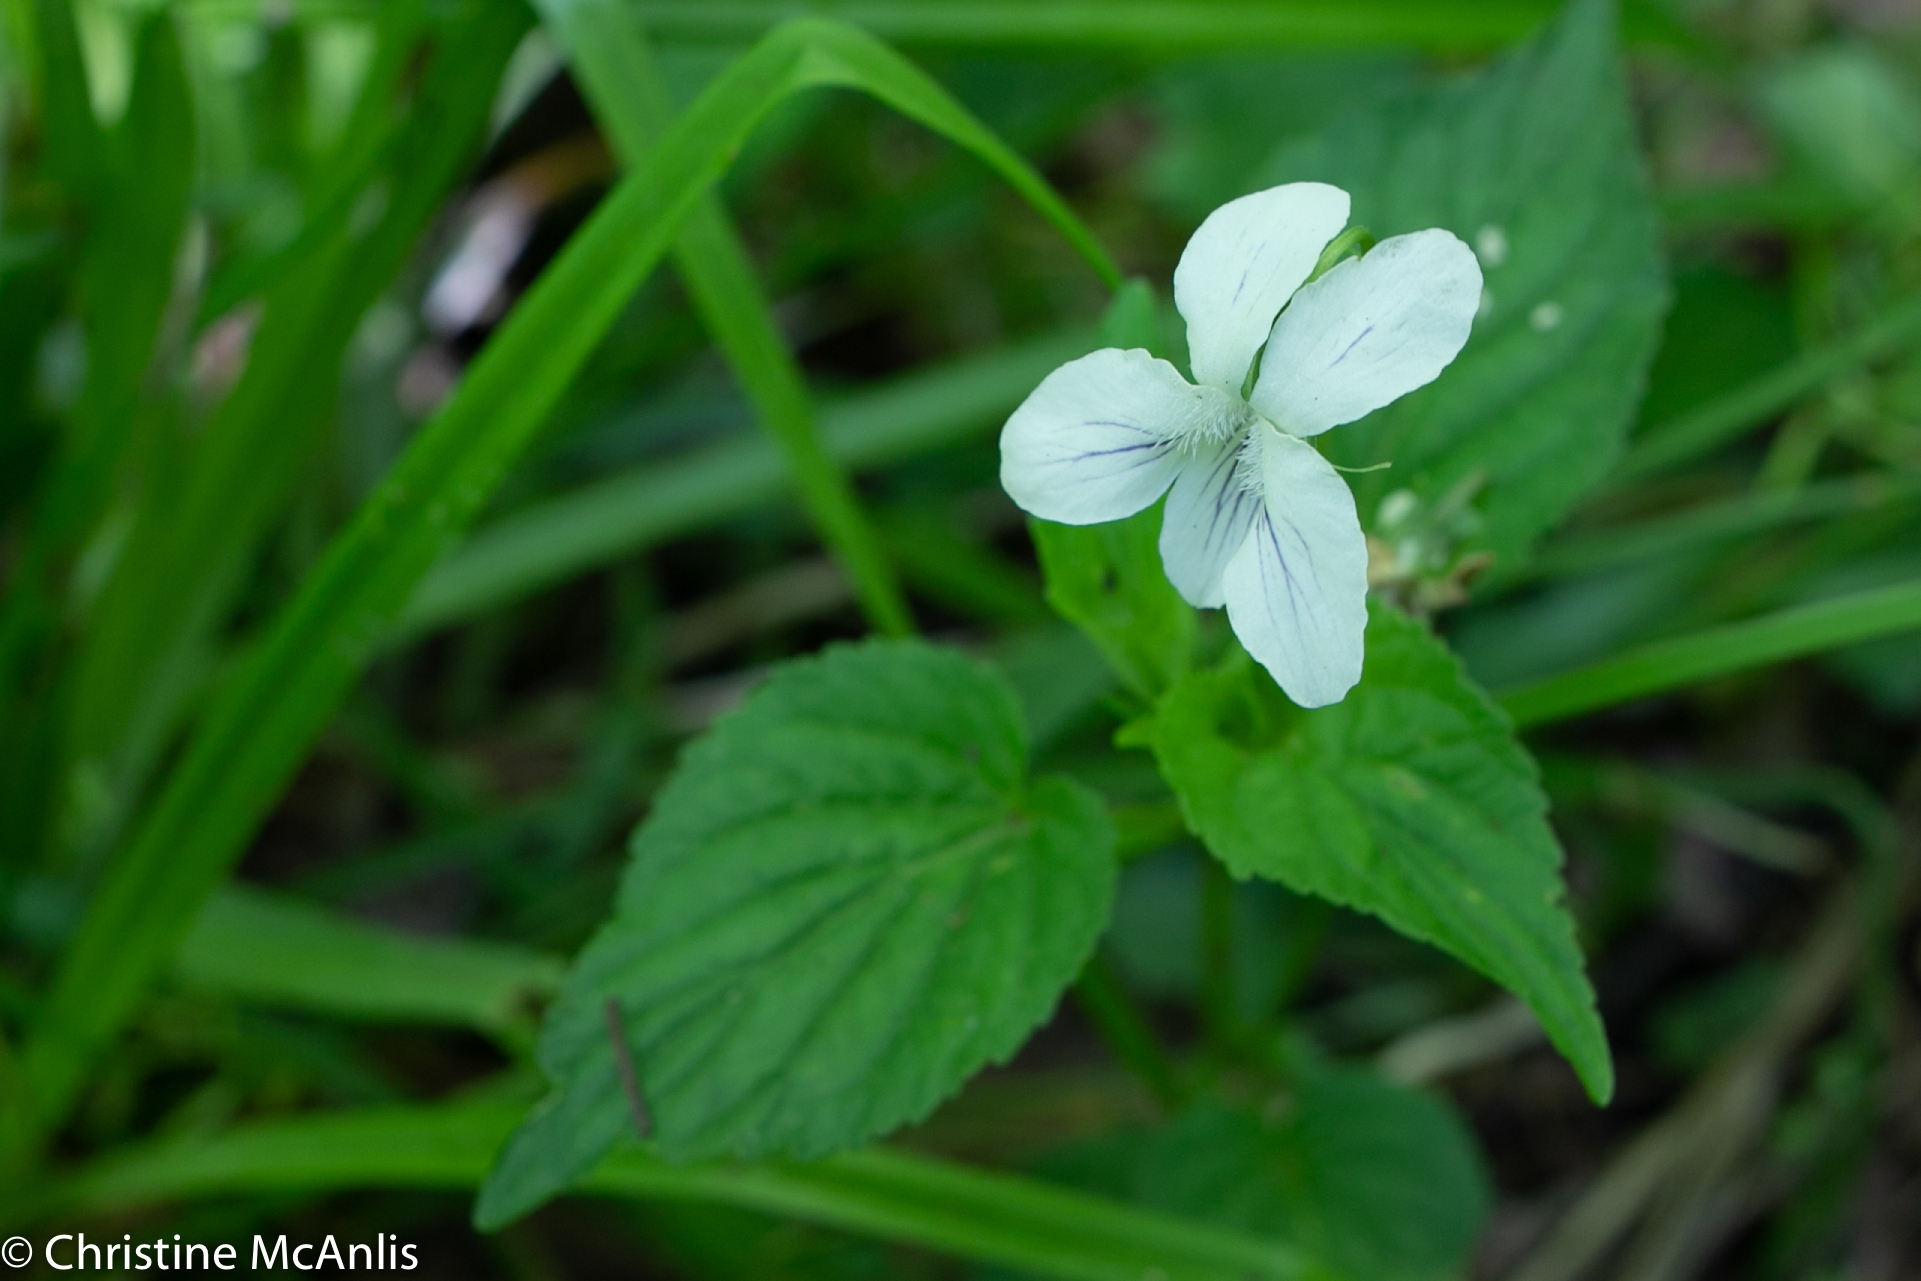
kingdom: Plantae
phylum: Tracheophyta
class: Magnoliopsida
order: Malpighiales
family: Violaceae
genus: Viola
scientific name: Viola striata
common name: Cream violet
